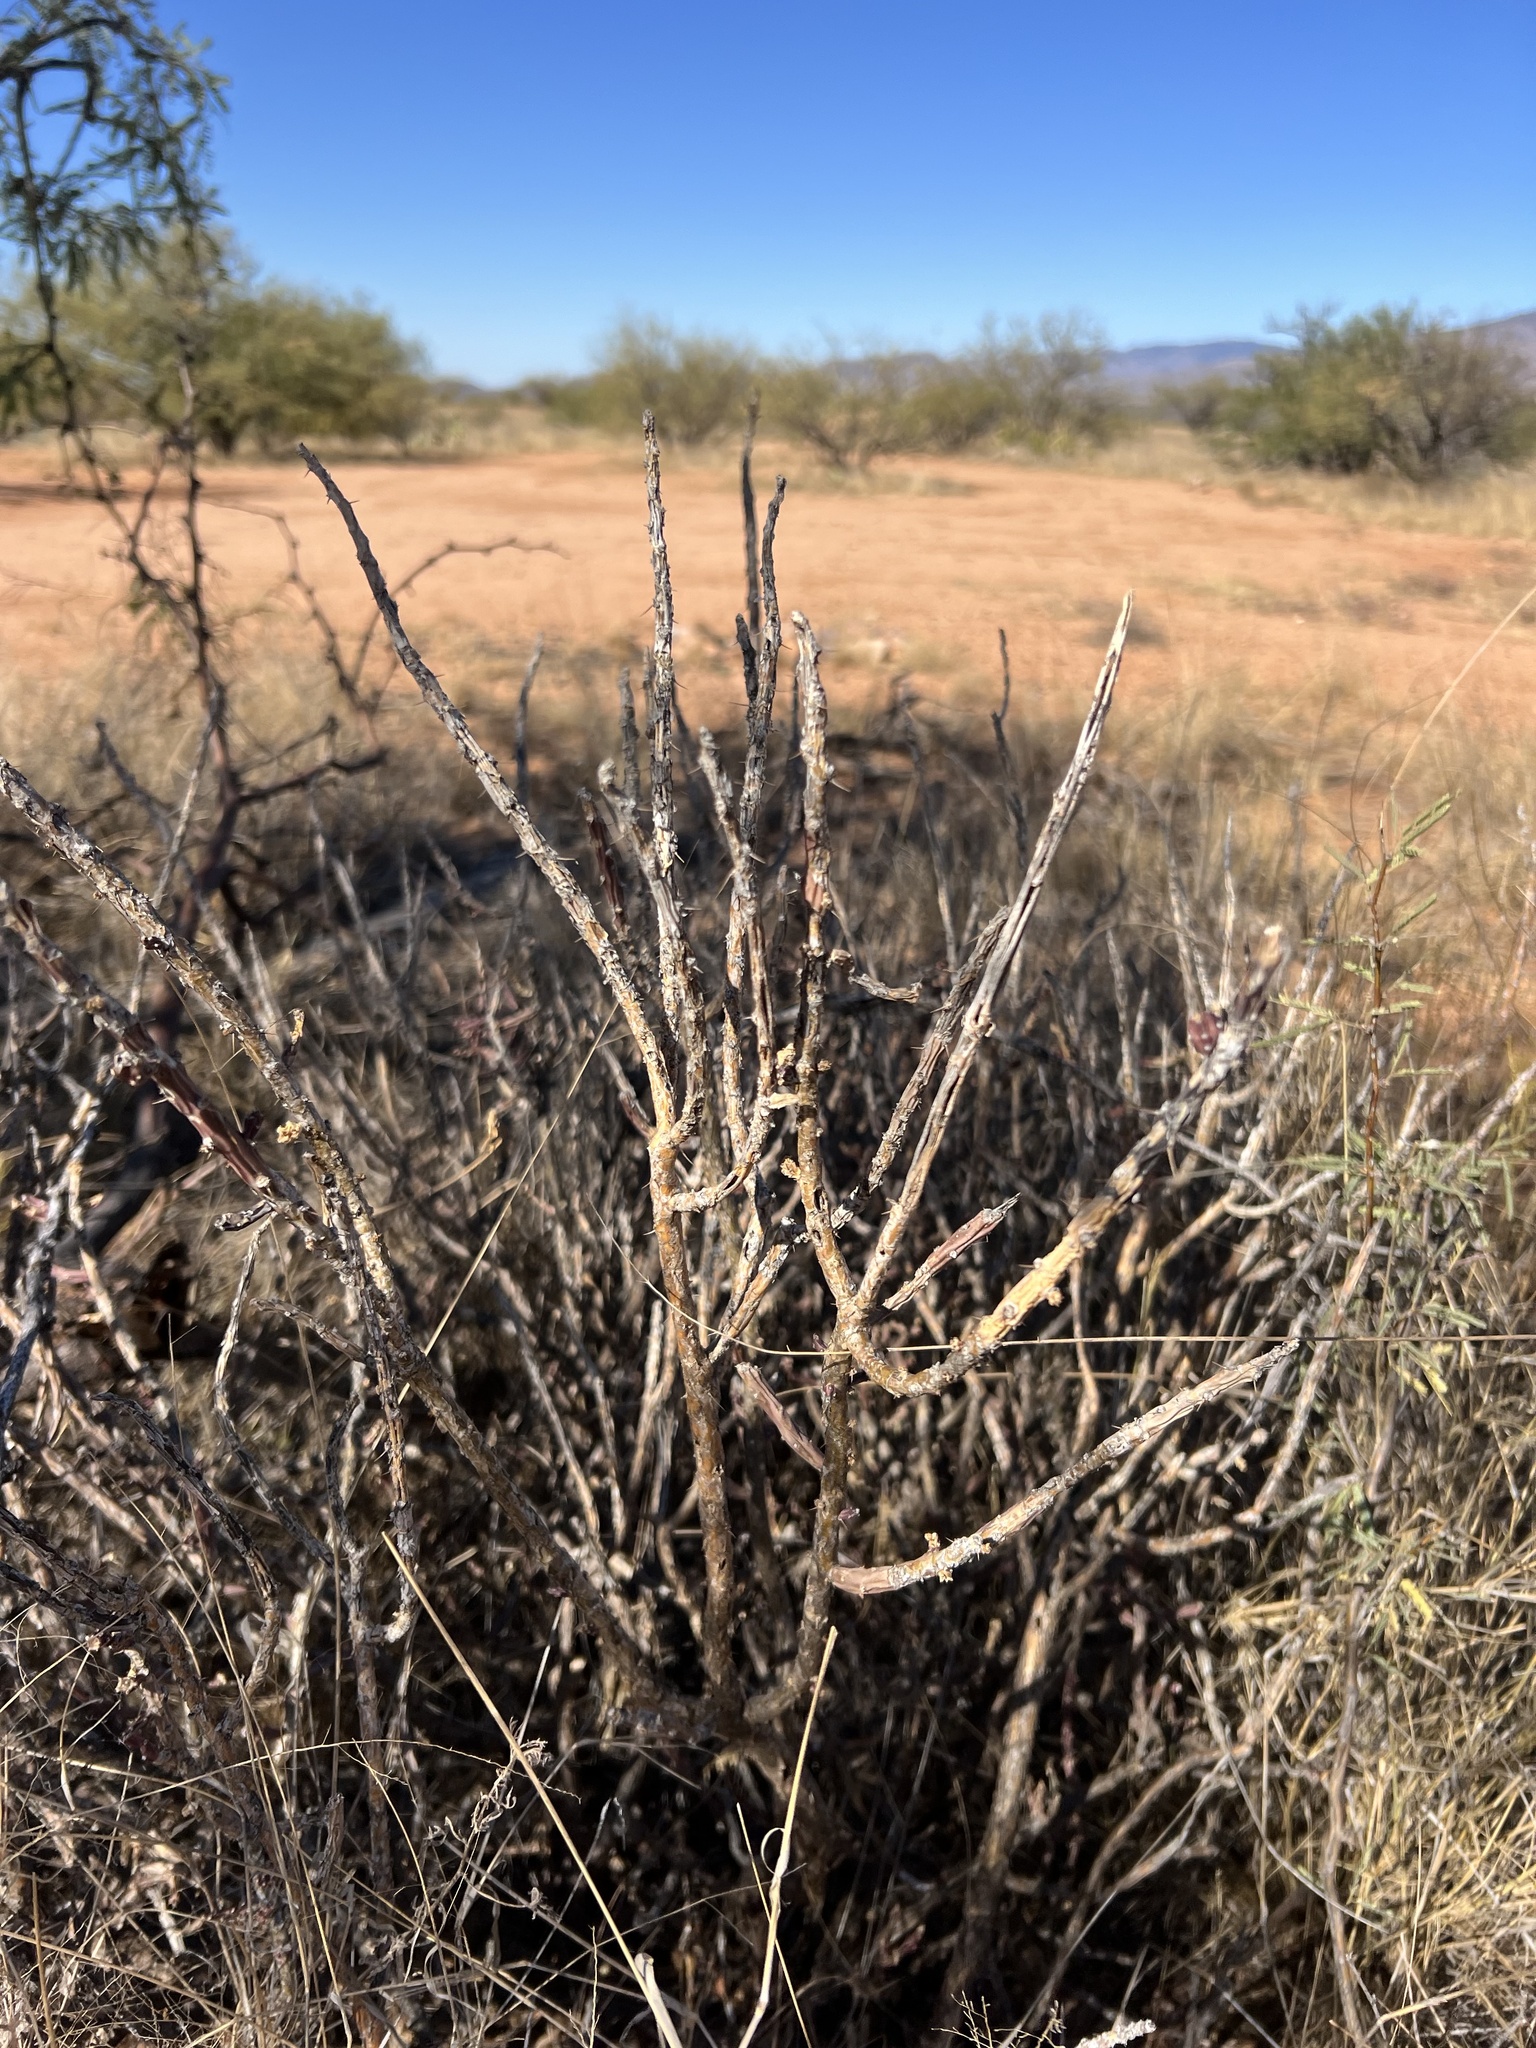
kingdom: Plantae
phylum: Tracheophyta
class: Magnoliopsida
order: Caryophyllales
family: Cactaceae
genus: Cylindropuntia
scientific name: Cylindropuntia leptocaulis
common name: Christmas cactus
